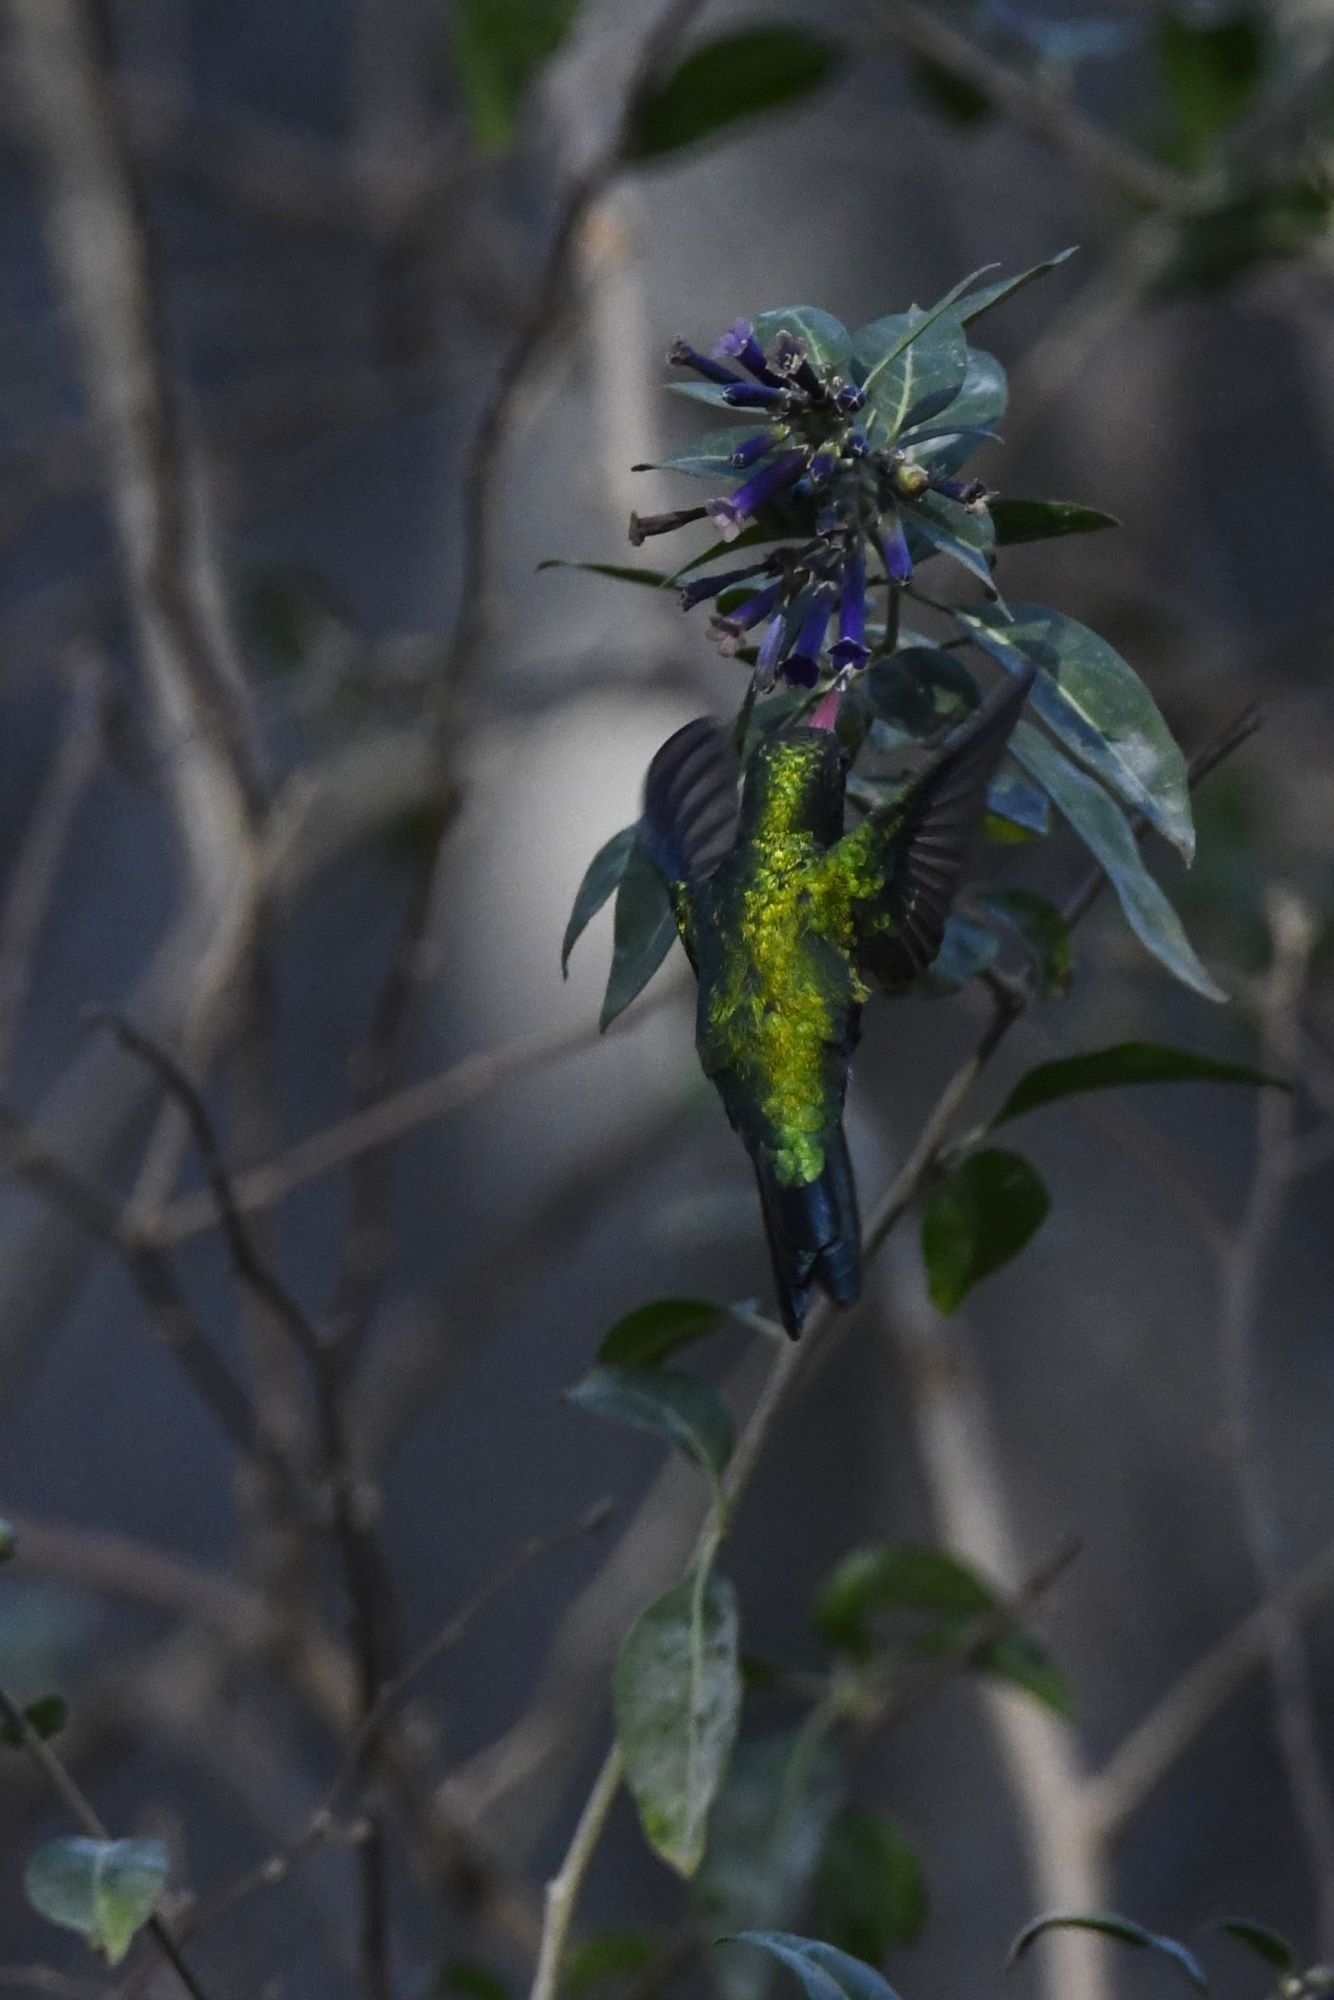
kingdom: Animalia
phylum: Chordata
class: Aves
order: Apodiformes
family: Trochilidae
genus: Chlorostilbon
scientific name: Chlorostilbon lucidus
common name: Glittering-bellied emerald
